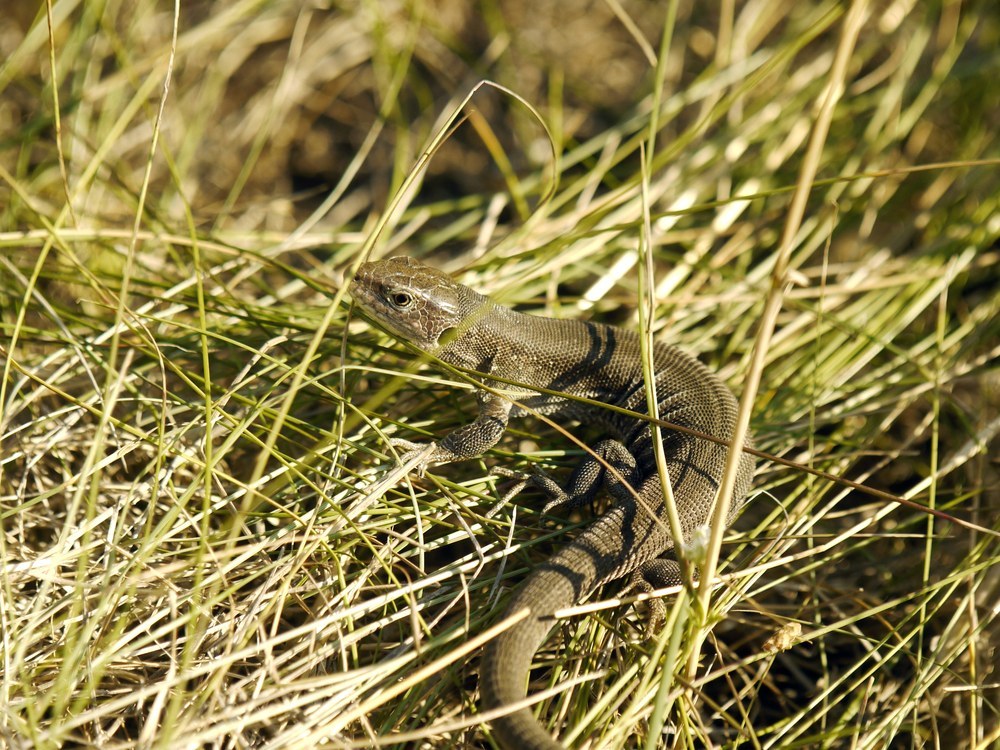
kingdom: Animalia
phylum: Chordata
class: Squamata
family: Lacertidae
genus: Lacerta
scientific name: Lacerta agilis
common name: Sand lizard
